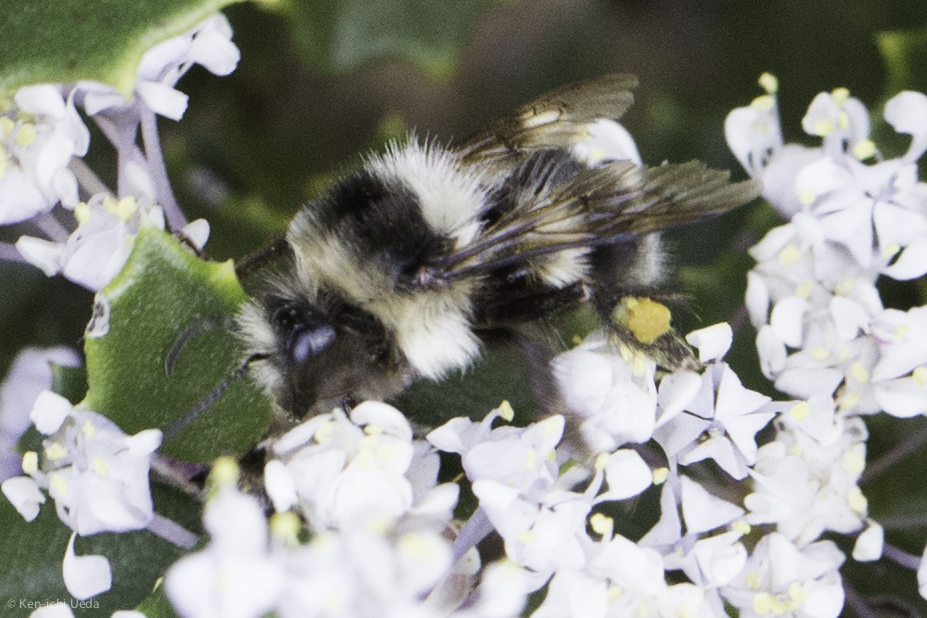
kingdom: Animalia
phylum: Arthropoda
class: Insecta
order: Hymenoptera
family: Apidae
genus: Bombus
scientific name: Bombus melanopygus
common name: Black tail bumble bee
